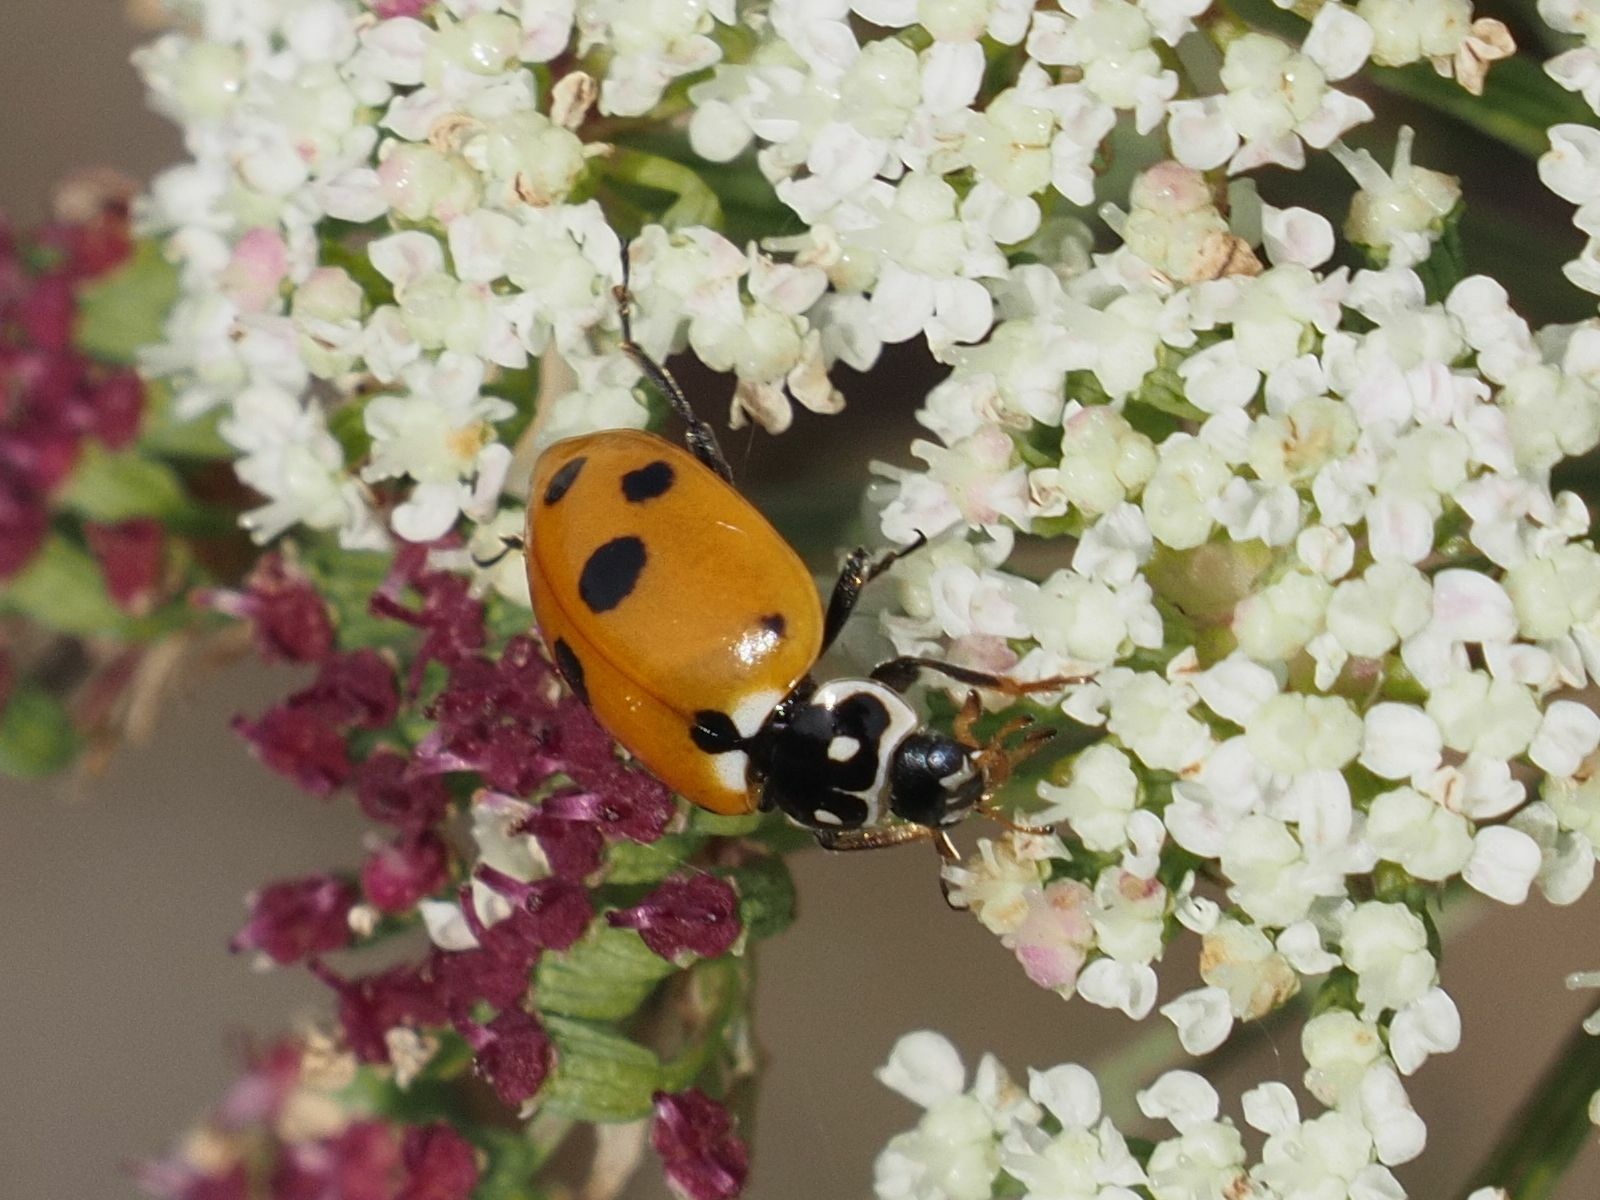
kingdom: Animalia
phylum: Arthropoda
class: Insecta
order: Coleoptera
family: Coccinellidae
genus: Hippodamia
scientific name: Hippodamia variegata
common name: Ladybird beetle
